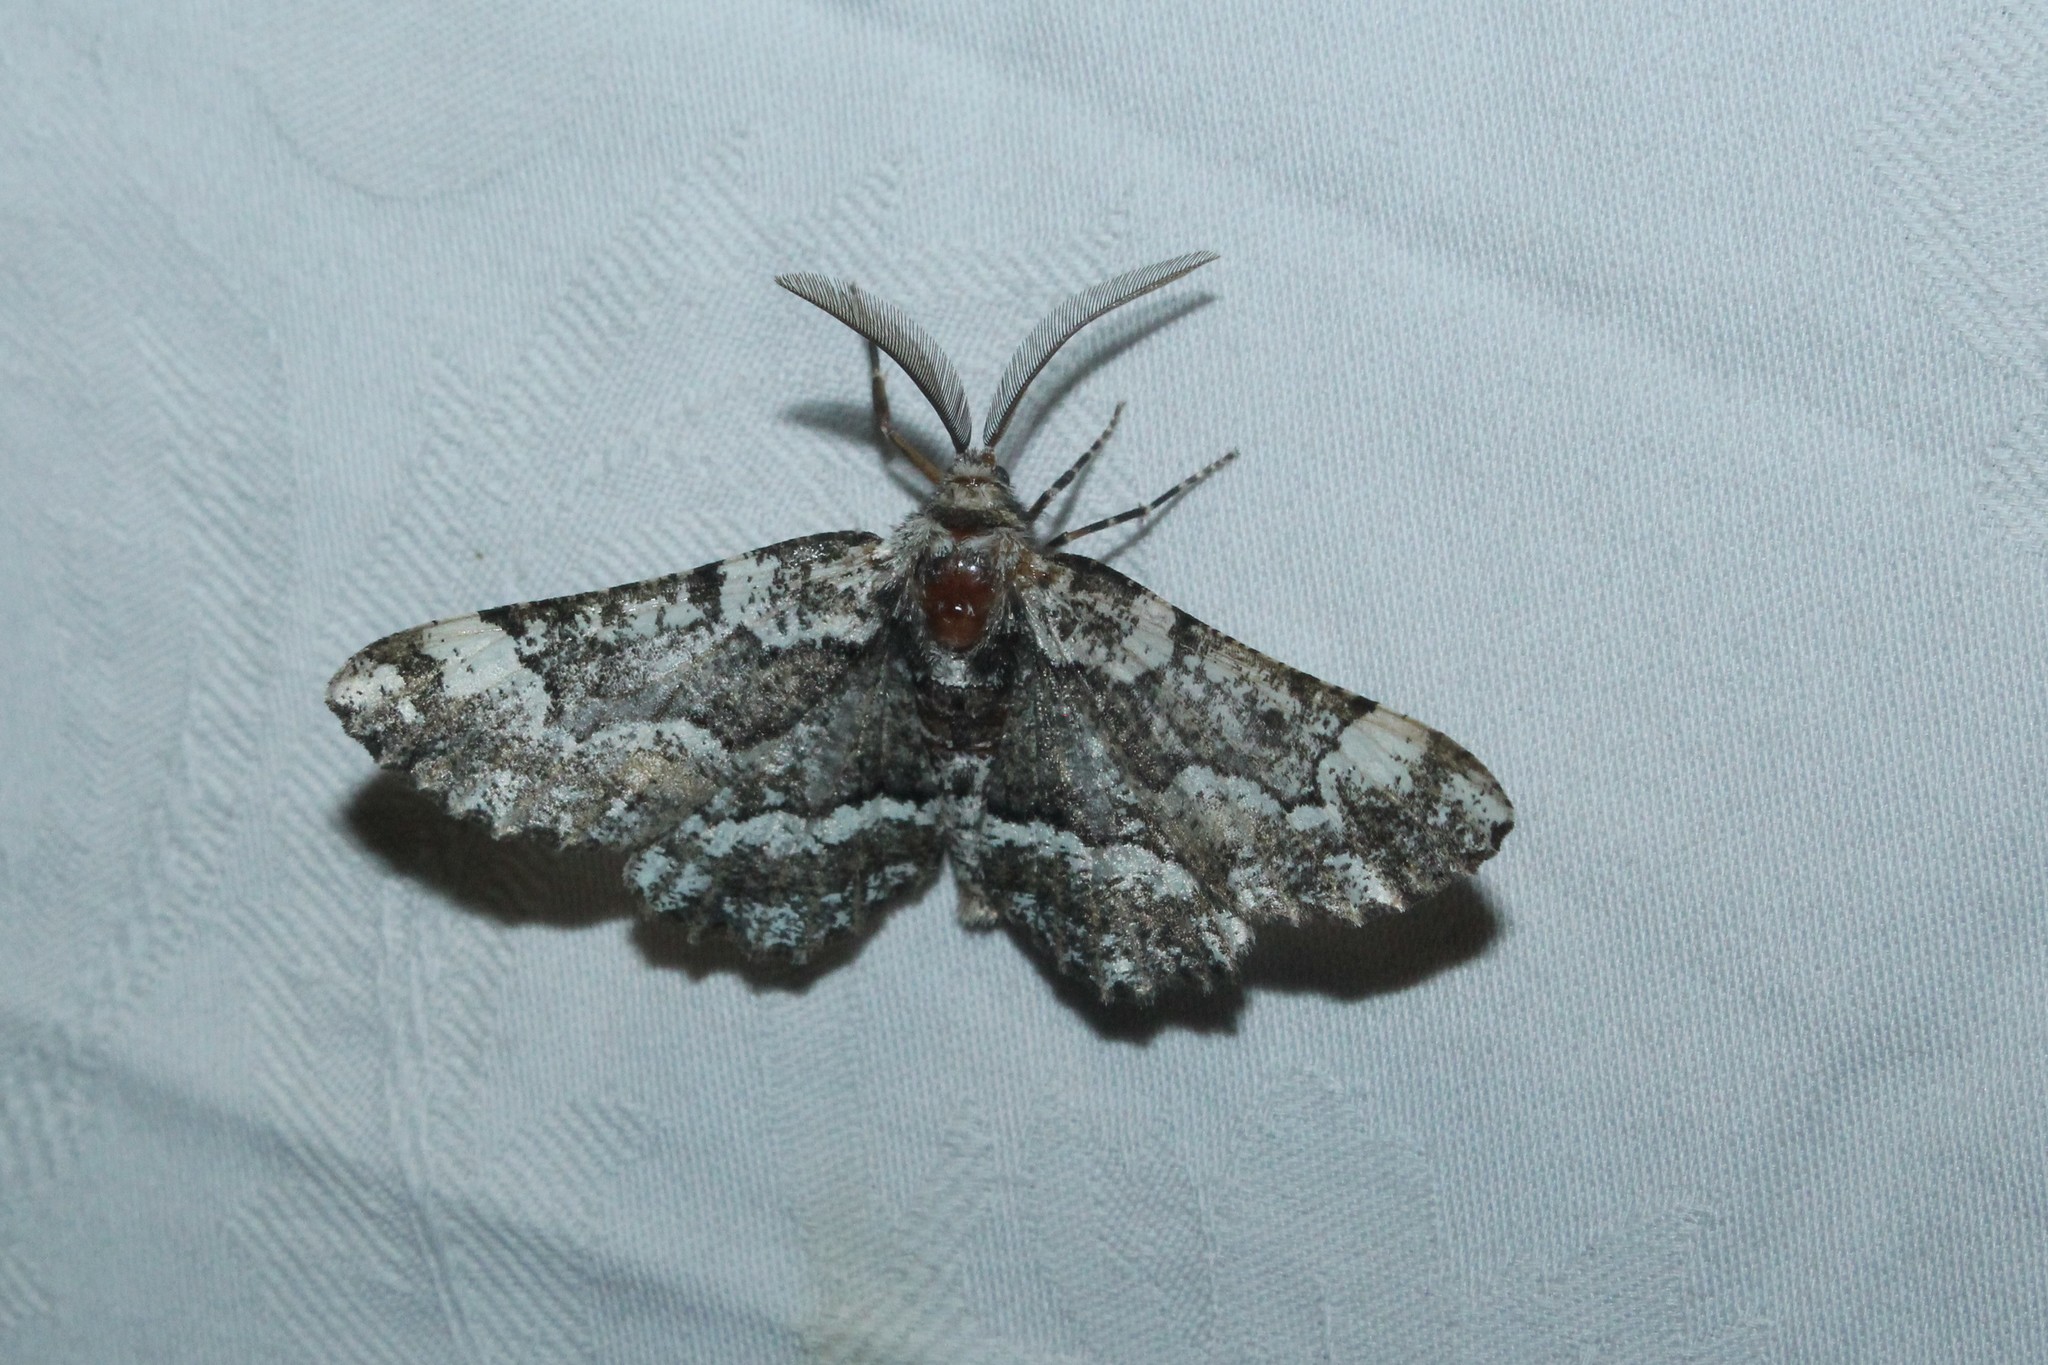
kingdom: Animalia
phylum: Arthropoda
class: Insecta
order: Lepidoptera
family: Geometridae
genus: Phaeoura
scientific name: Phaeoura quernaria
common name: Oak beauty
